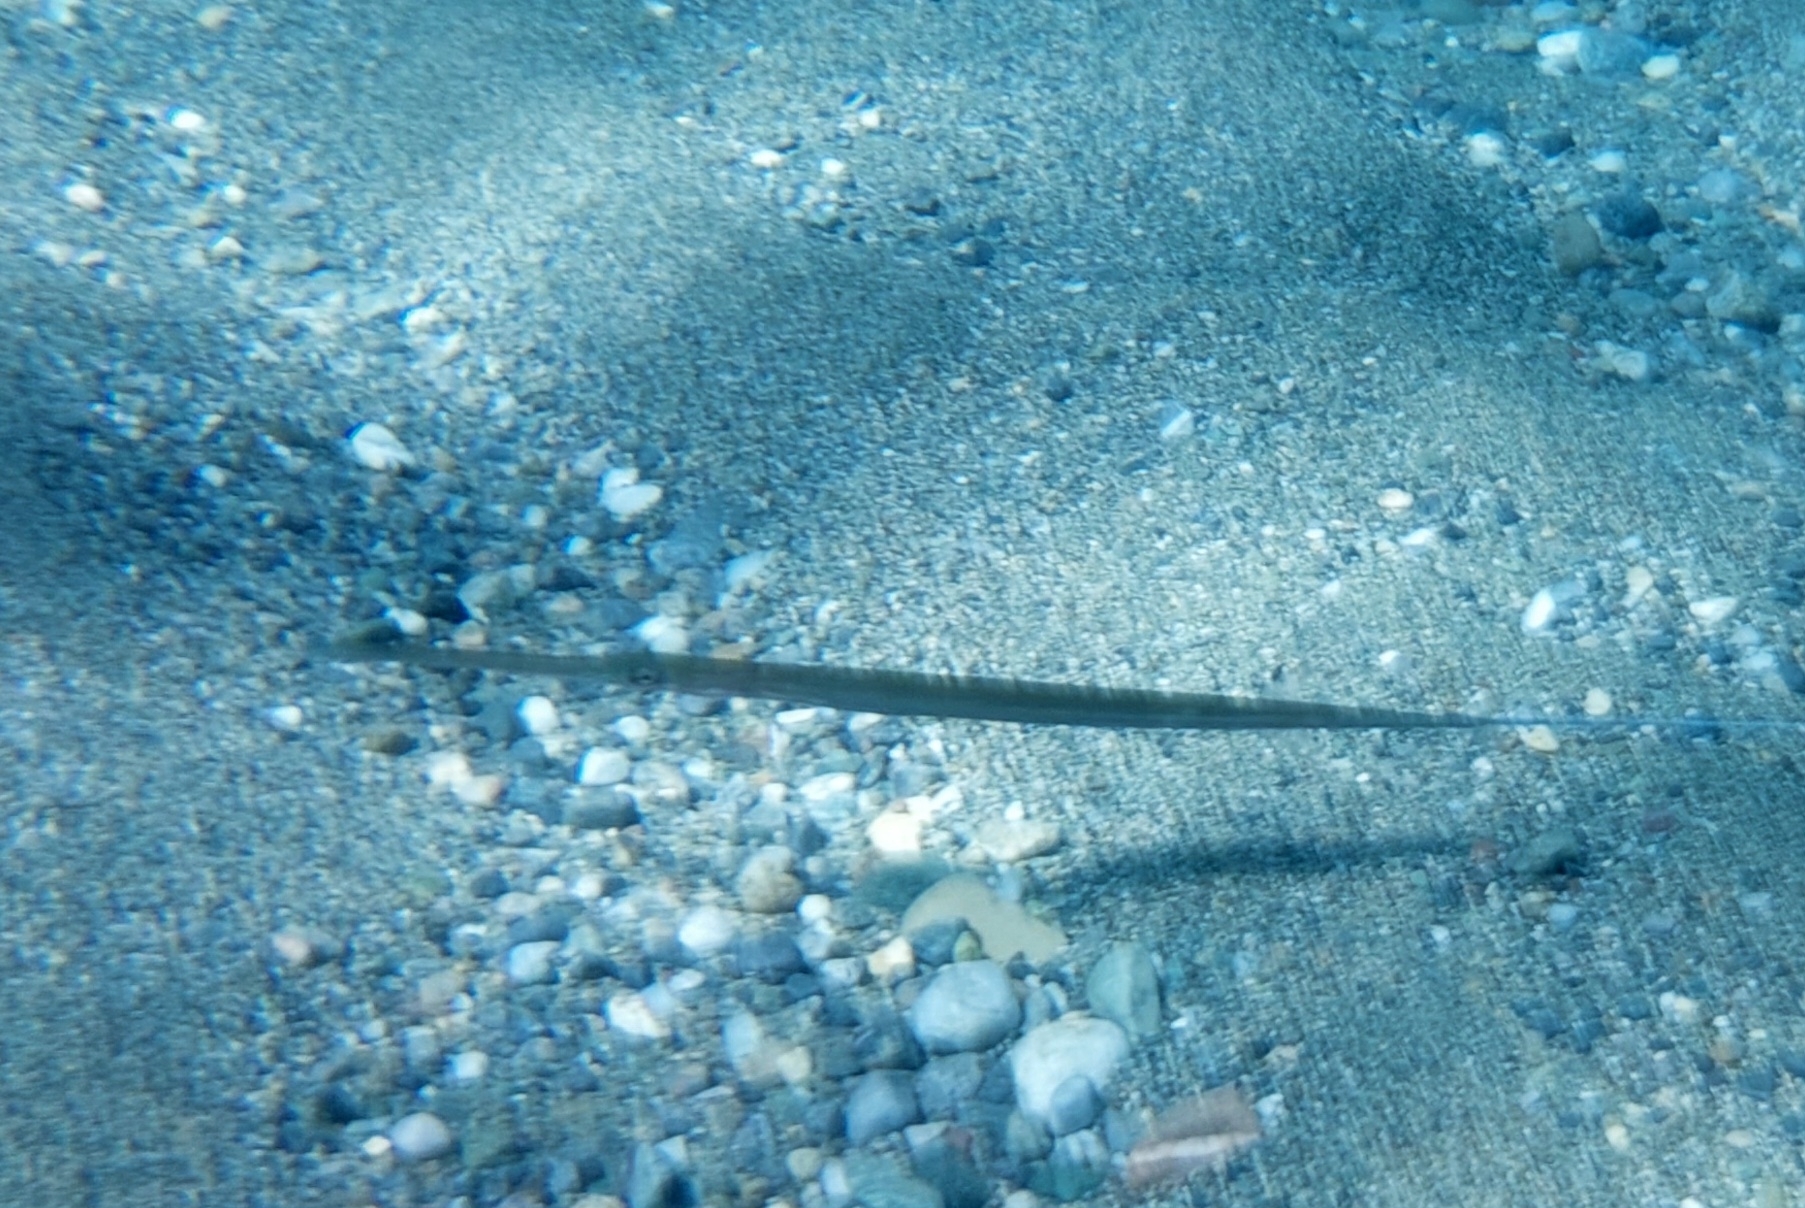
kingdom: Animalia
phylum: Chordata
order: Syngnathiformes
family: Fistulariidae
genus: Fistularia
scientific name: Fistularia commersonii
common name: Bluespotted cornetfish
